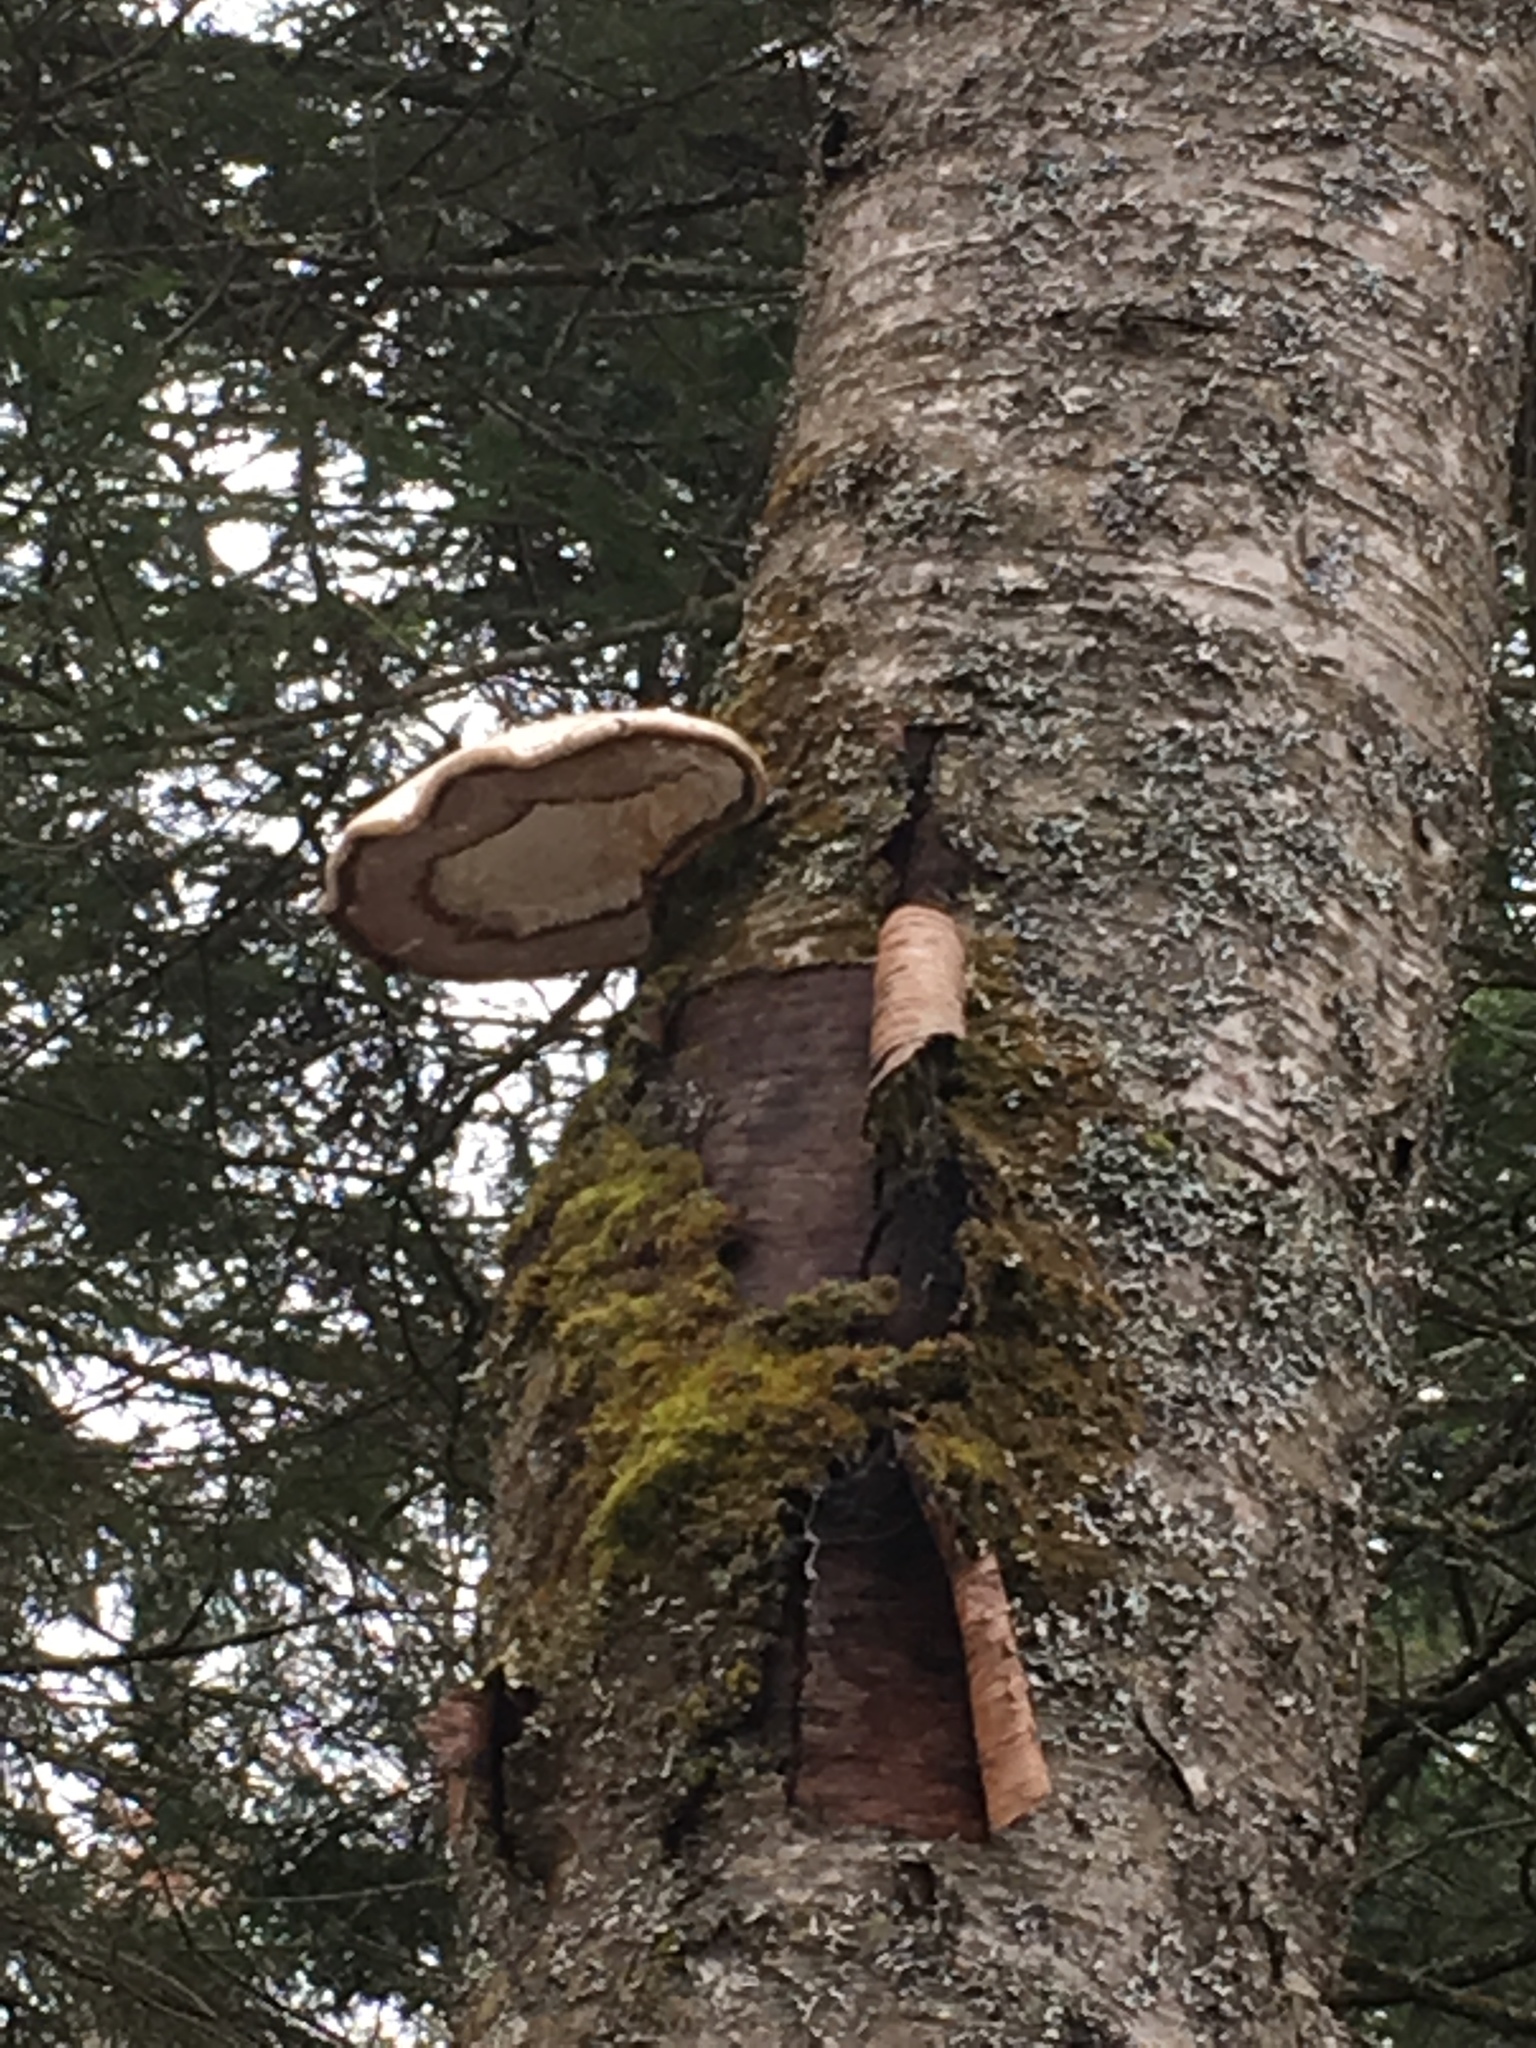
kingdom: Fungi
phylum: Basidiomycota
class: Agaricomycetes
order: Polyporales
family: Fomitopsidaceae
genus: Fomitopsis
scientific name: Fomitopsis betulina
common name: Birch polypore
